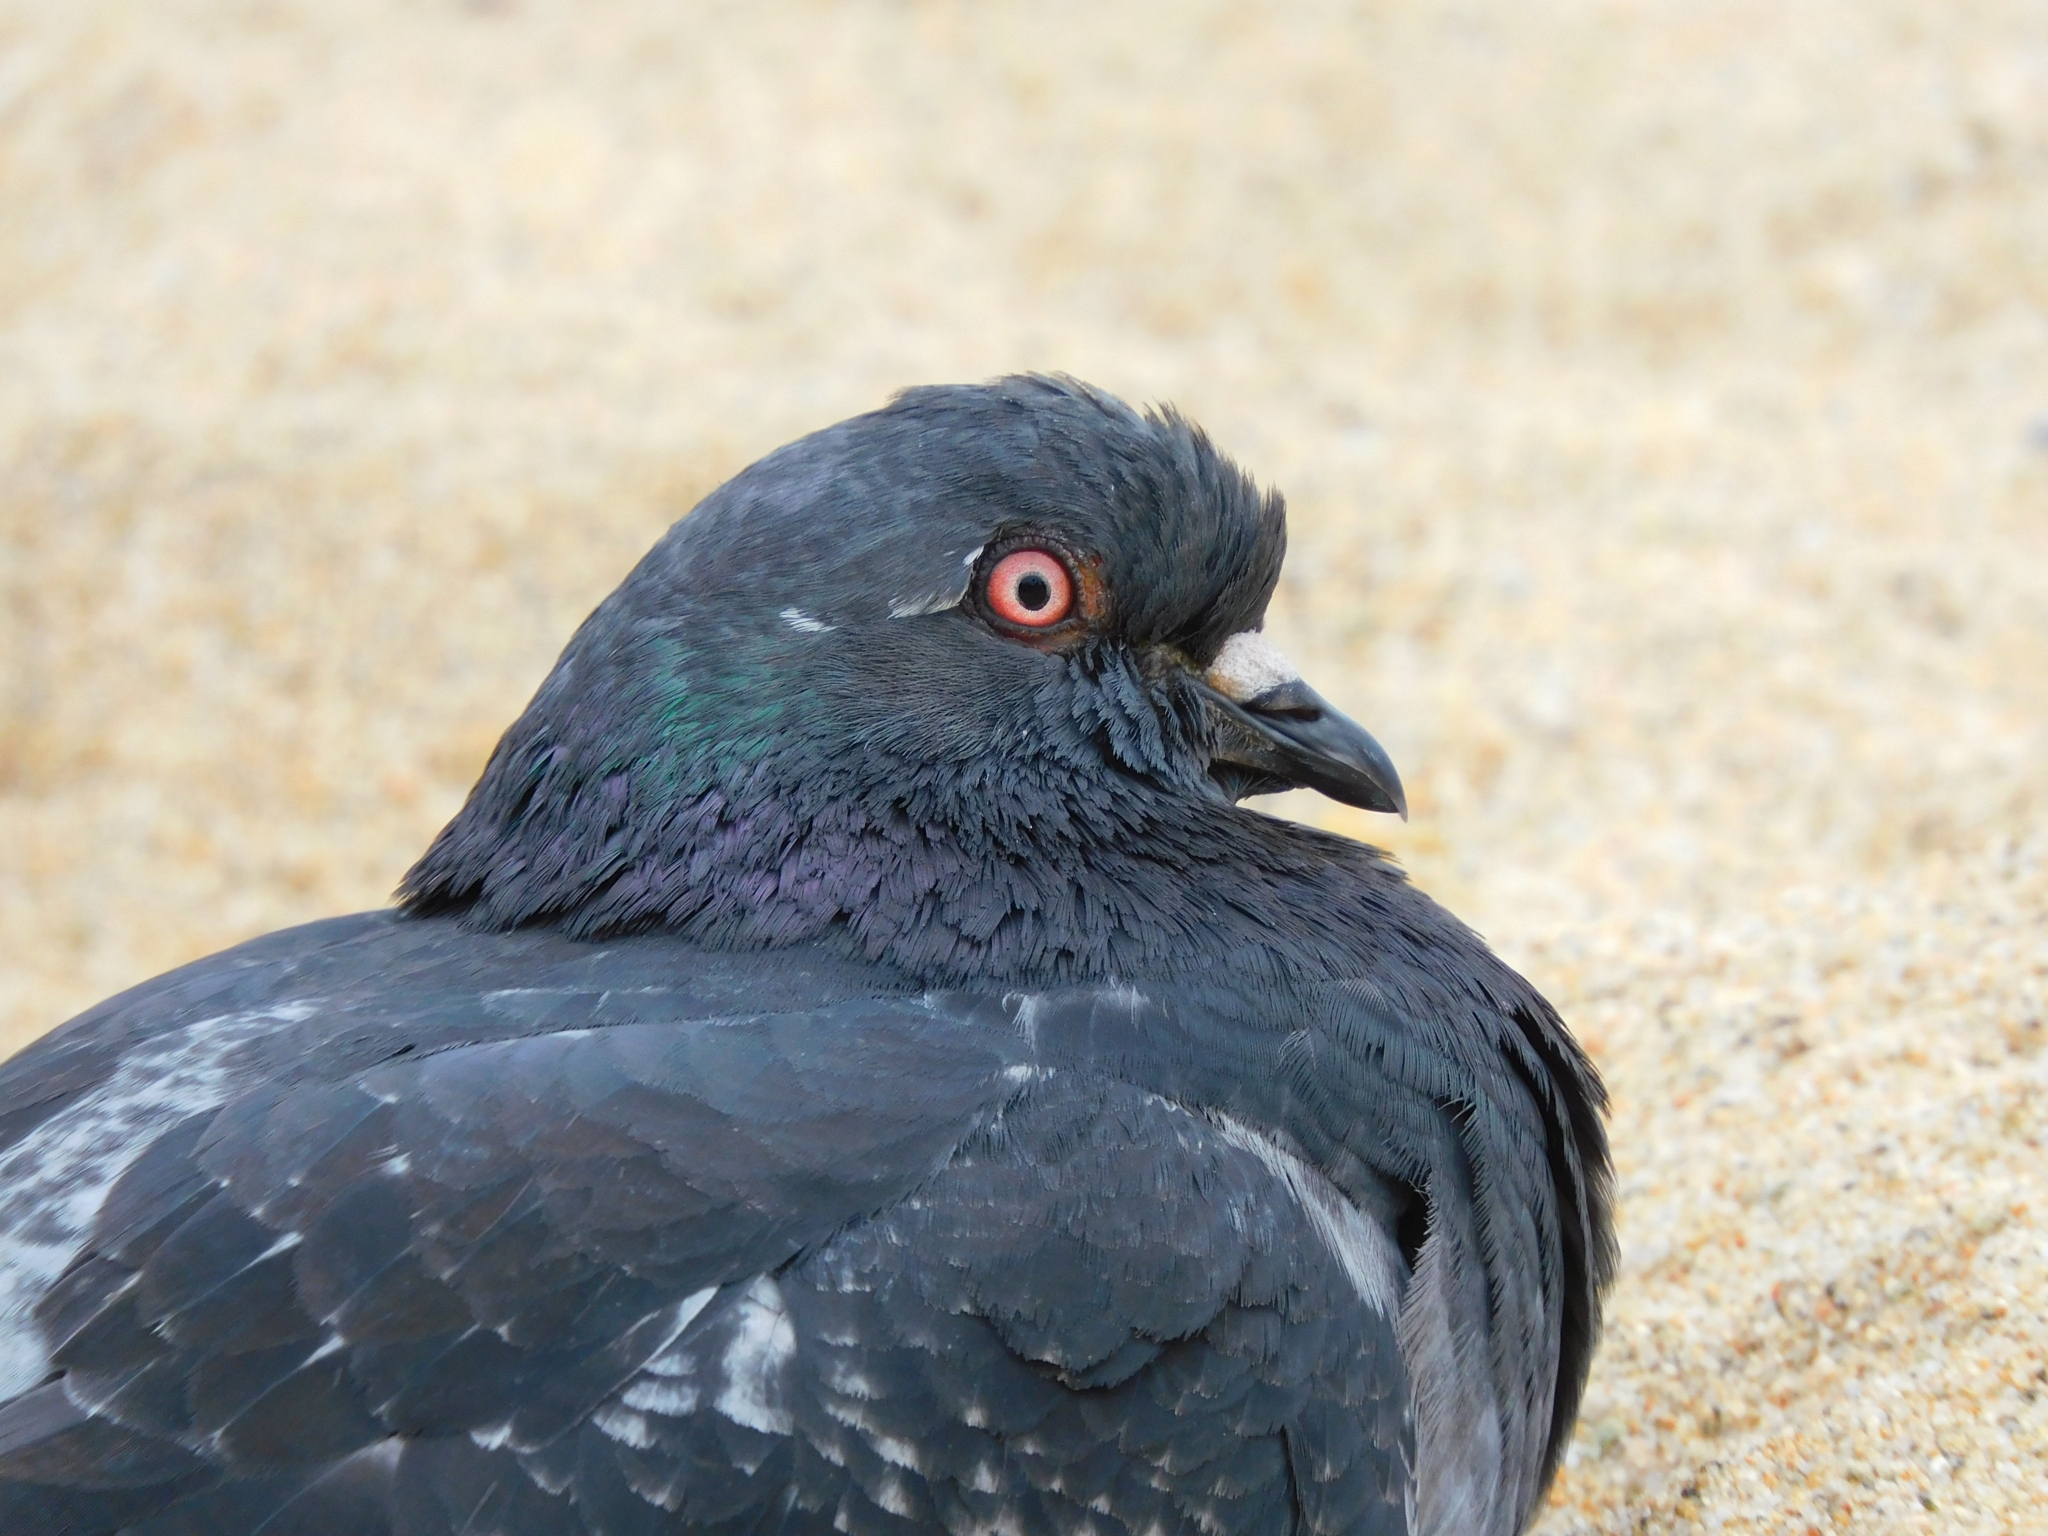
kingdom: Animalia
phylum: Chordata
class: Aves
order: Columbiformes
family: Columbidae
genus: Columba
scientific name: Columba livia
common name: Rock pigeon
